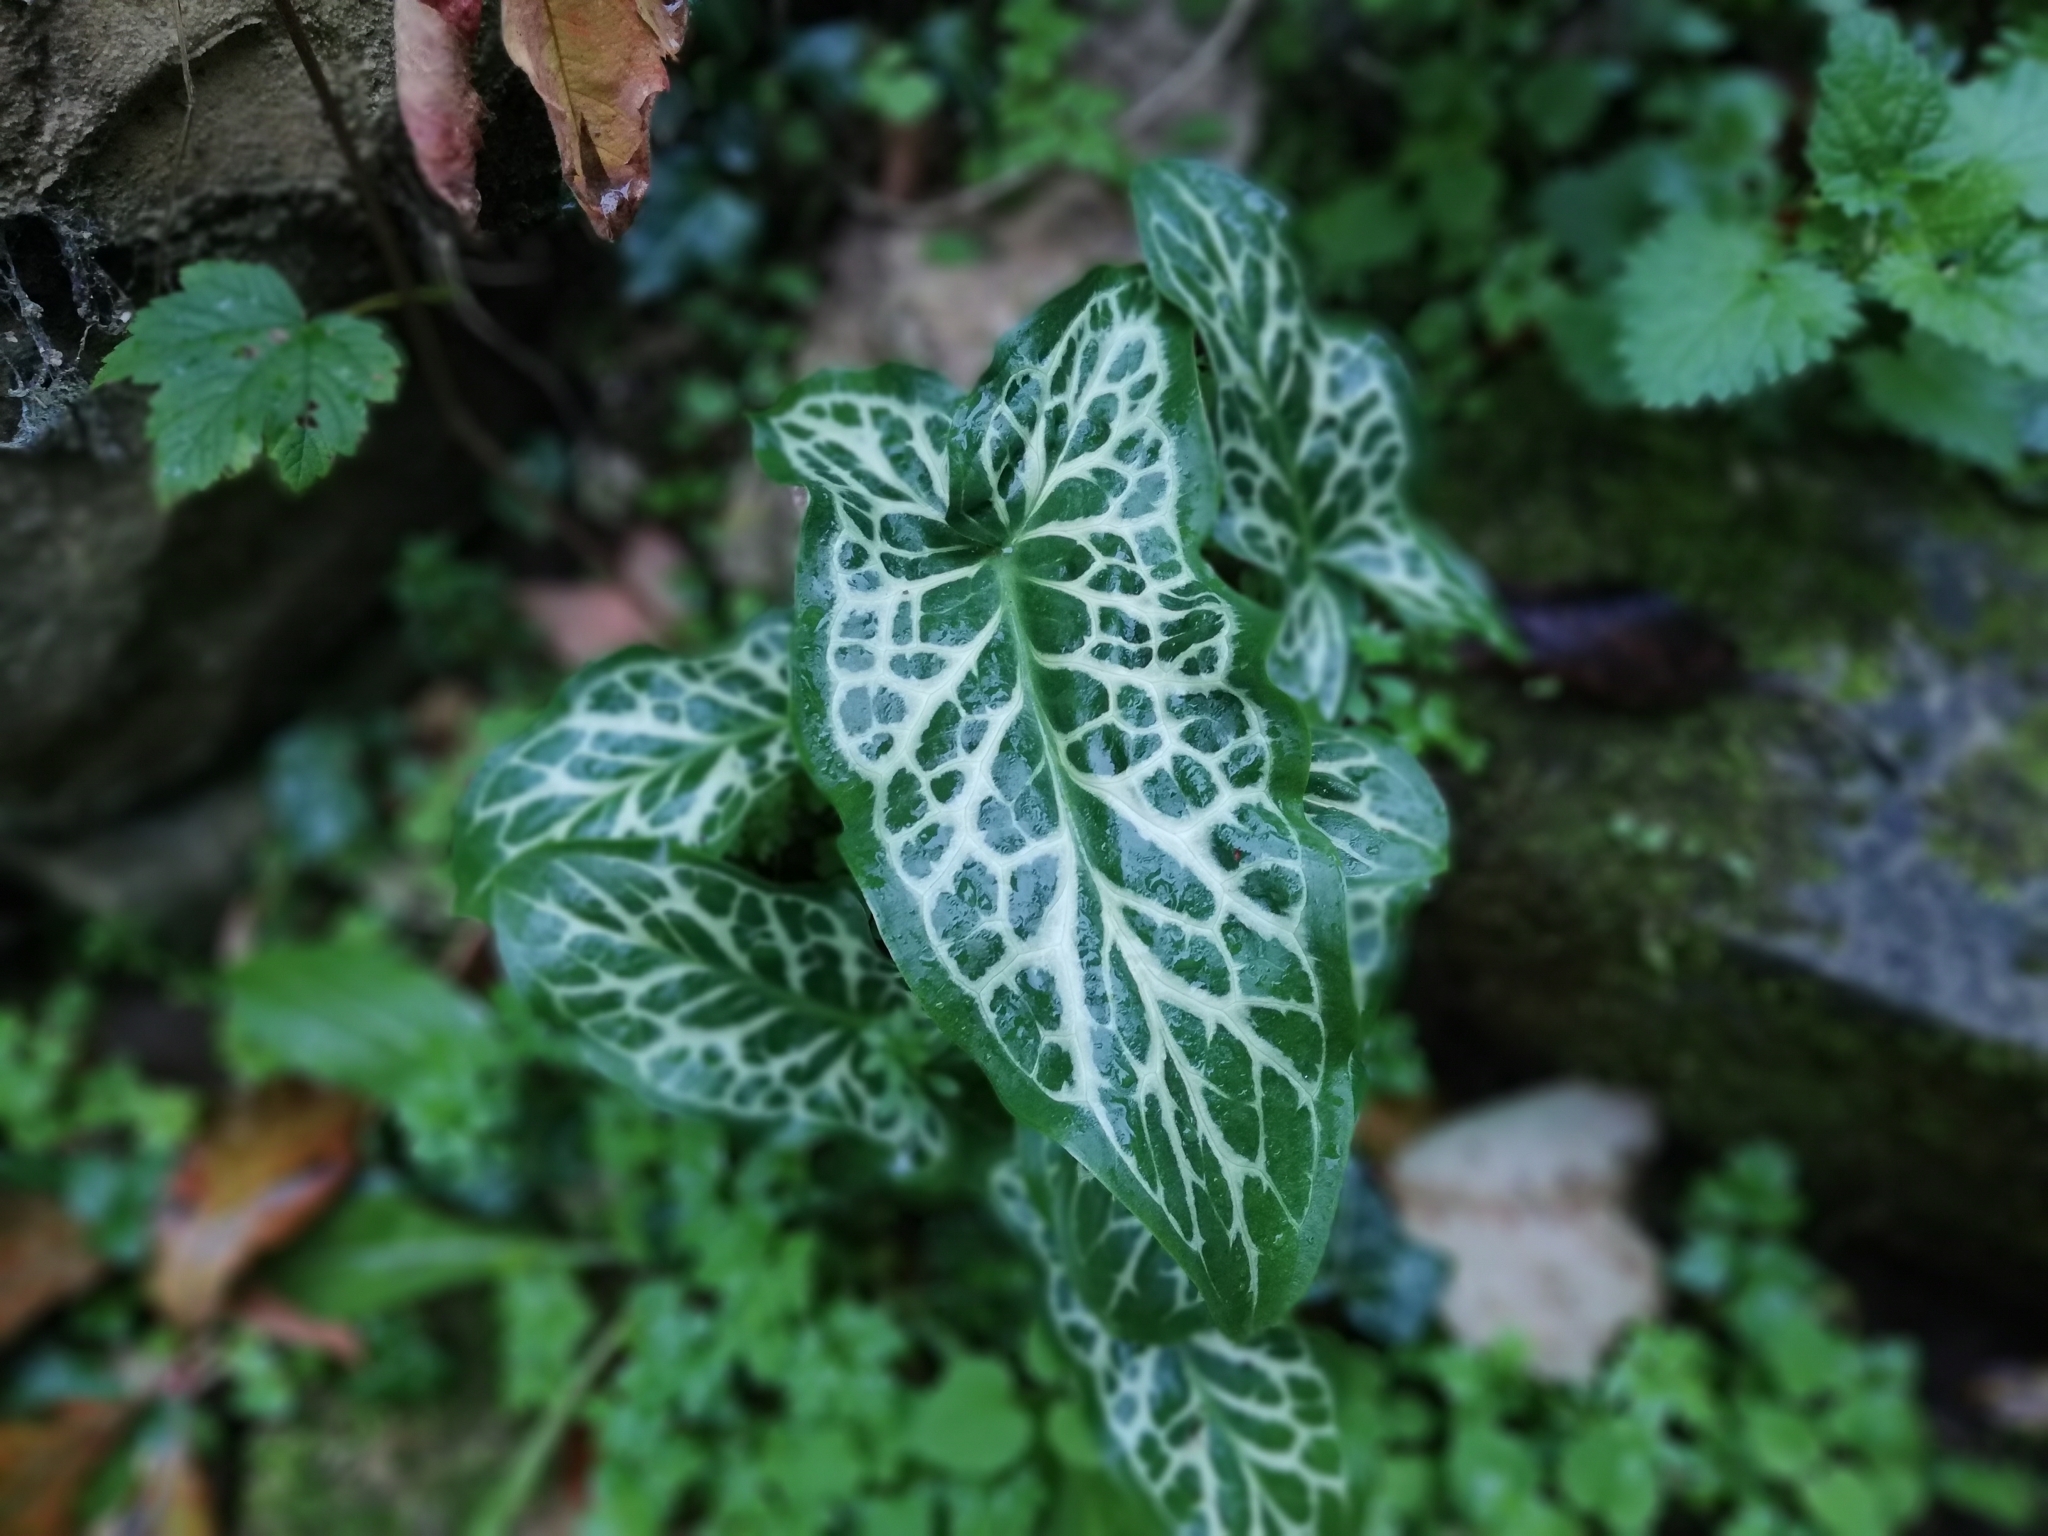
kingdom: Plantae
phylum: Tracheophyta
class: Liliopsida
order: Alismatales
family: Araceae
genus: Arum
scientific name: Arum italicum
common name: Italian lords-and-ladies
